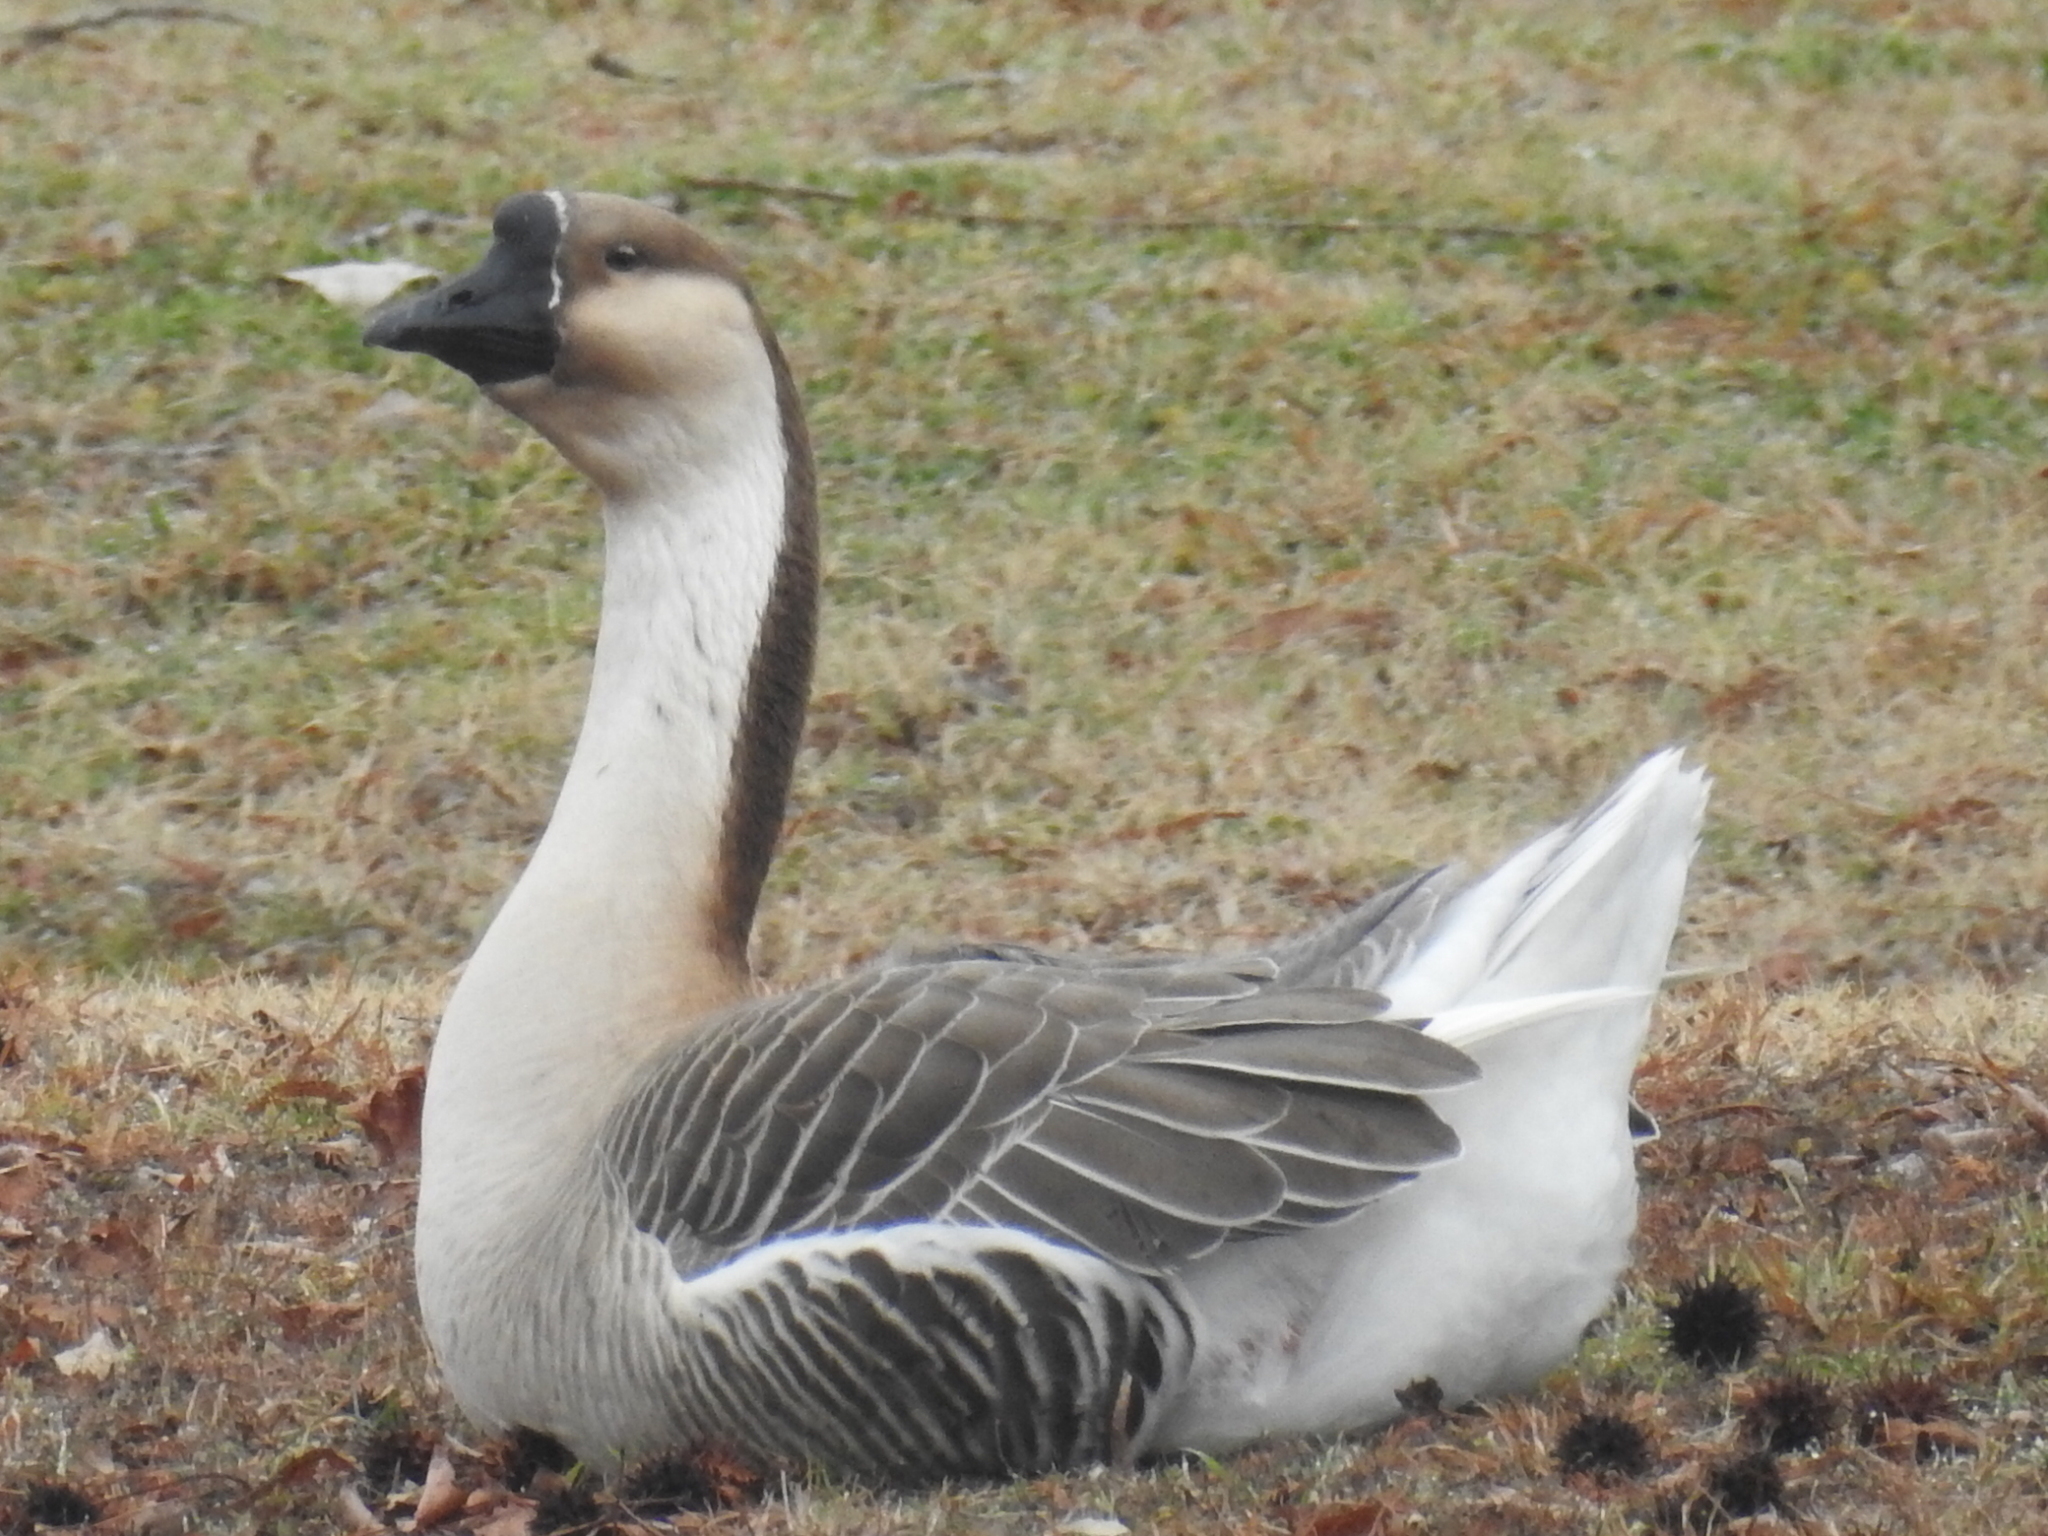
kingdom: Animalia
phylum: Chordata
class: Aves
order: Anseriformes
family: Anatidae
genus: Anser
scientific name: Anser cygnoides
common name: Swan goose
